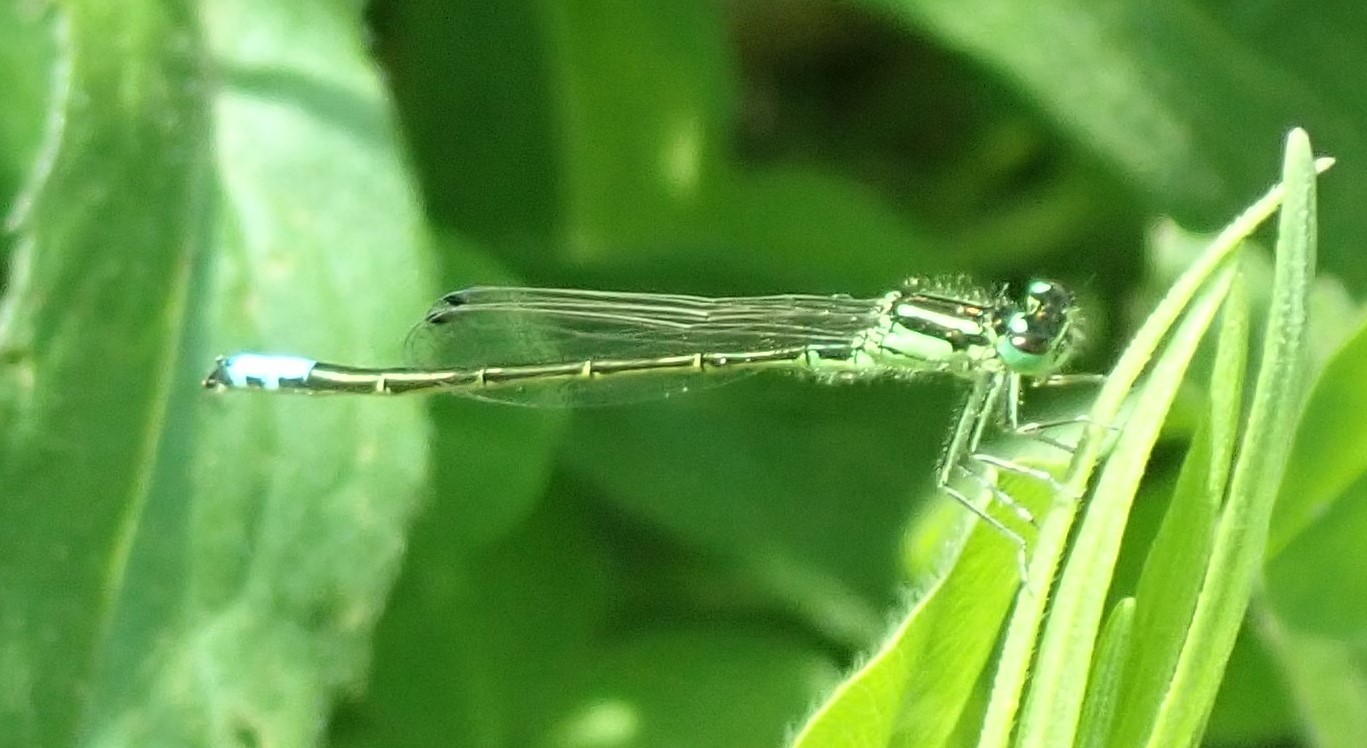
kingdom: Animalia
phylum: Arthropoda
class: Insecta
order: Odonata
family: Coenagrionidae
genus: Ischnura
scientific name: Ischnura verticalis
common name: Eastern forktail
